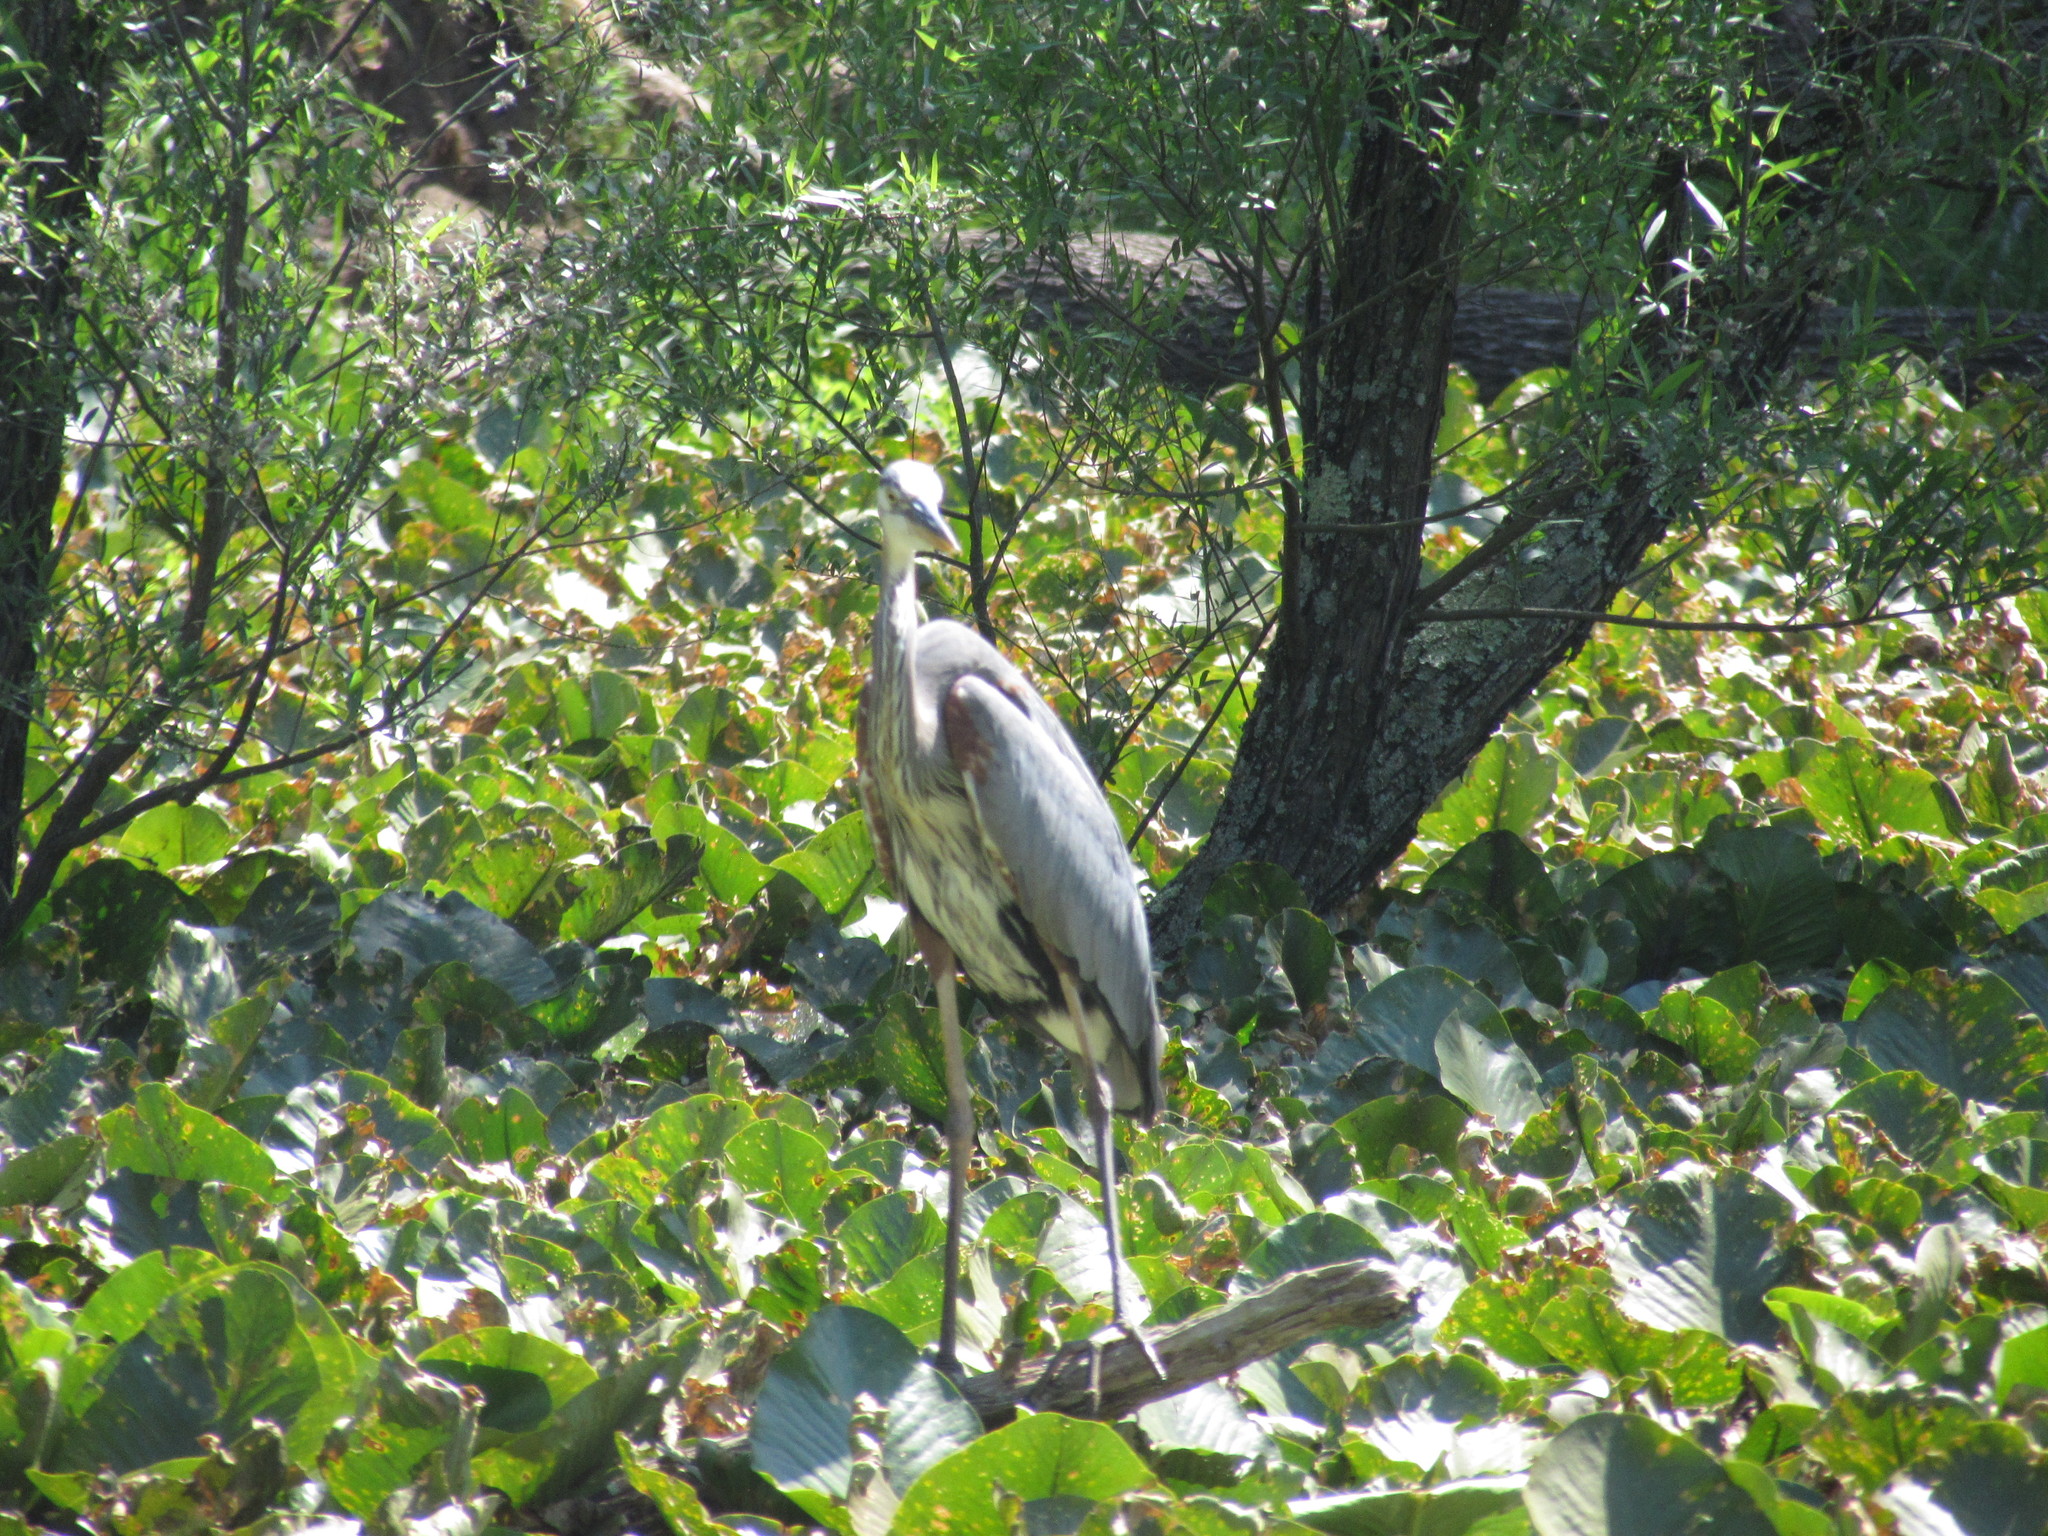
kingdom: Animalia
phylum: Chordata
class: Aves
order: Pelecaniformes
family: Ardeidae
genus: Ardea
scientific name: Ardea herodias
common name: Great blue heron
